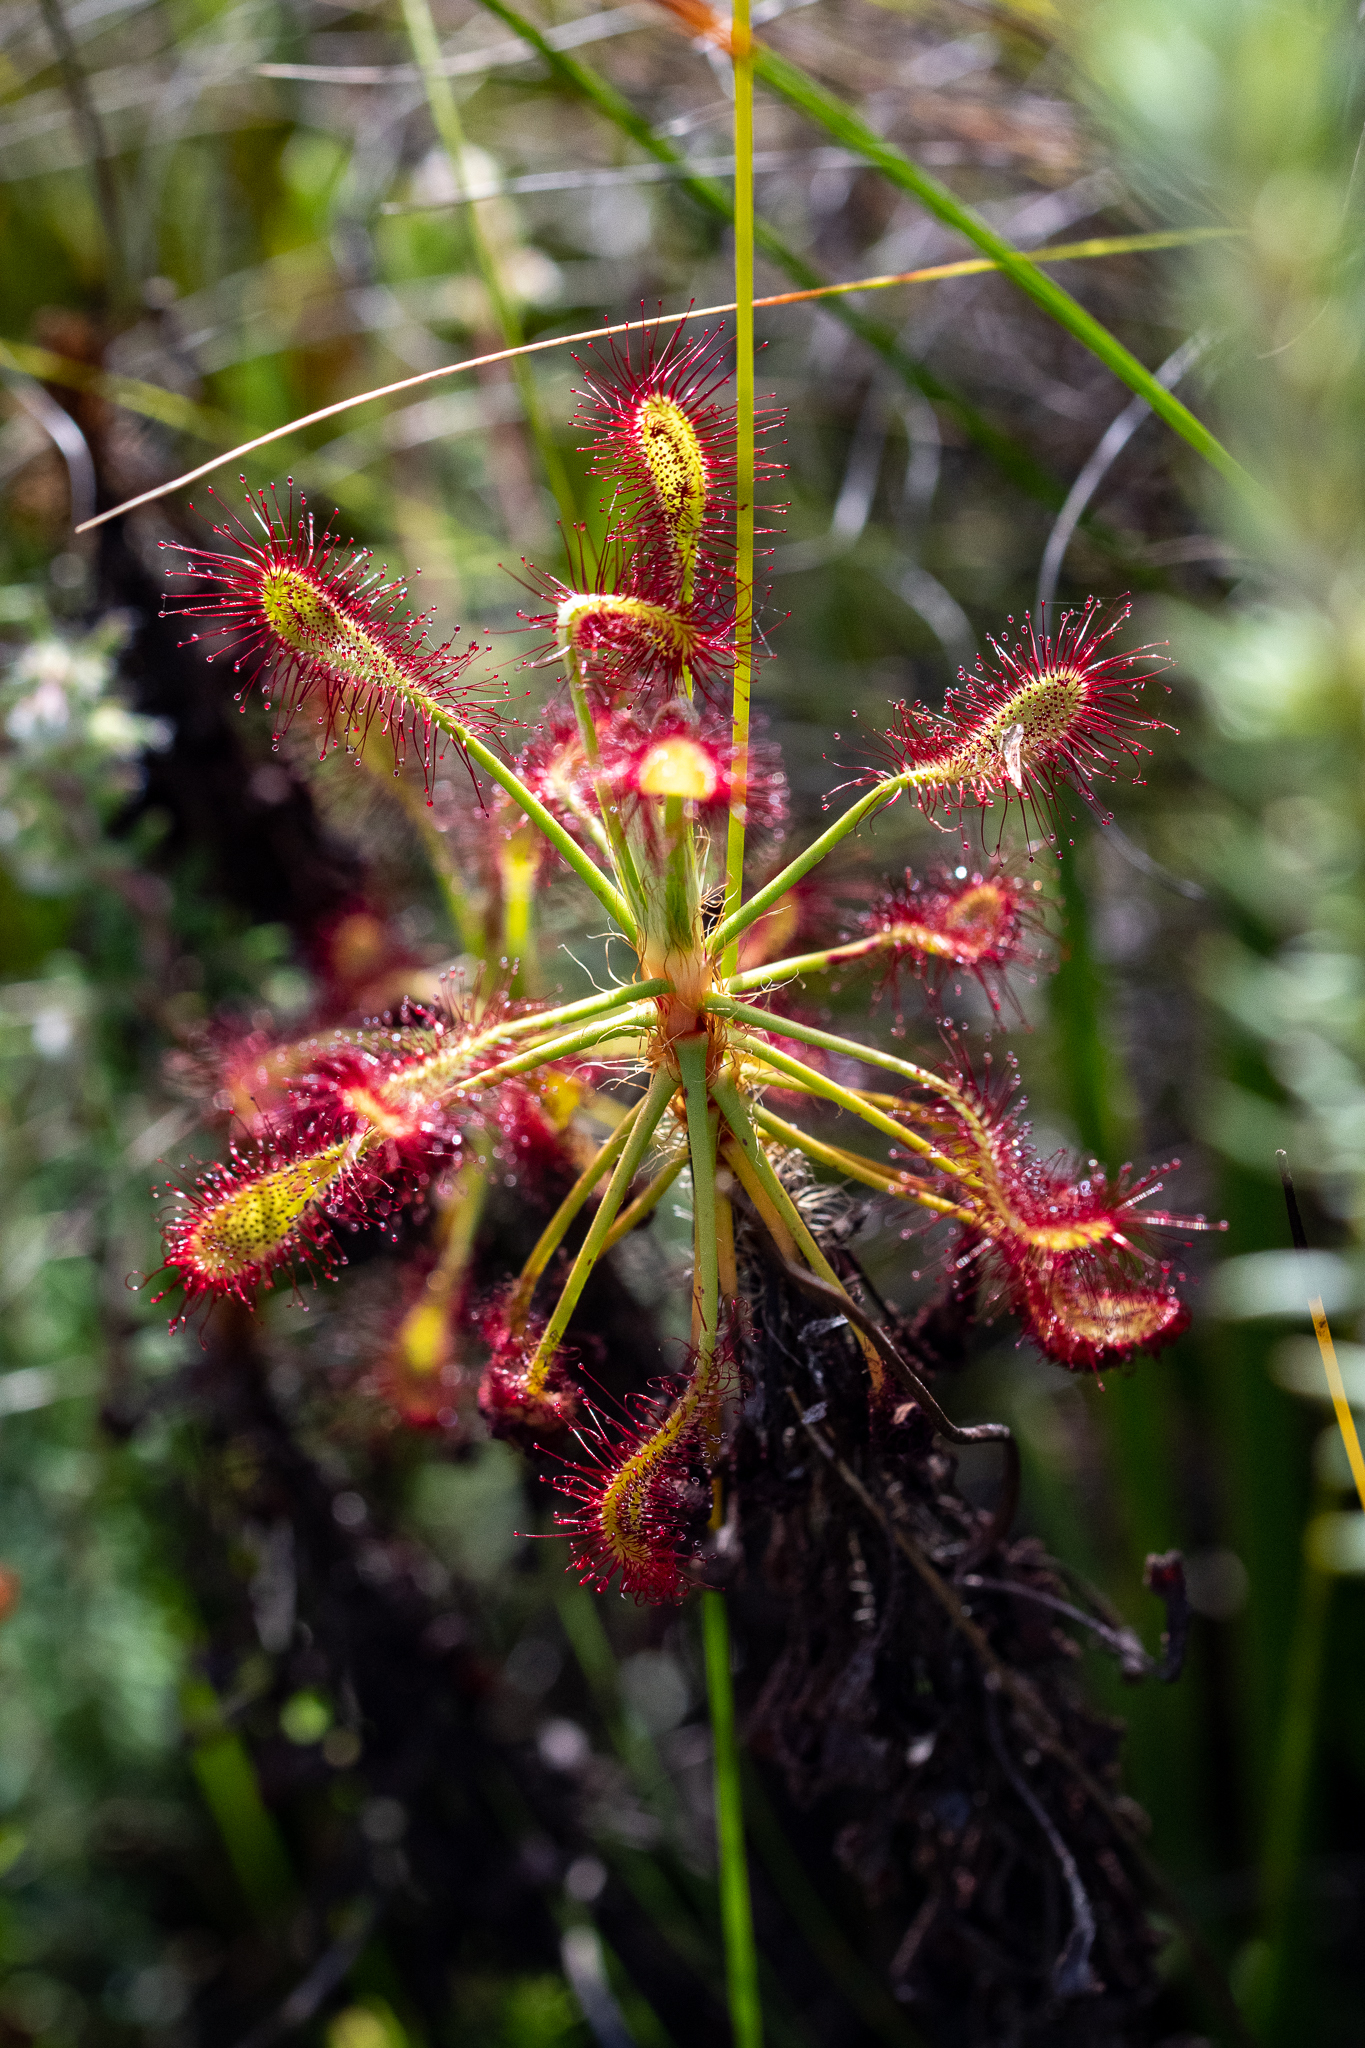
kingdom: Plantae
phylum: Tracheophyta
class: Magnoliopsida
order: Caryophyllales
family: Droseraceae
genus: Drosera
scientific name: Drosera glabripes
